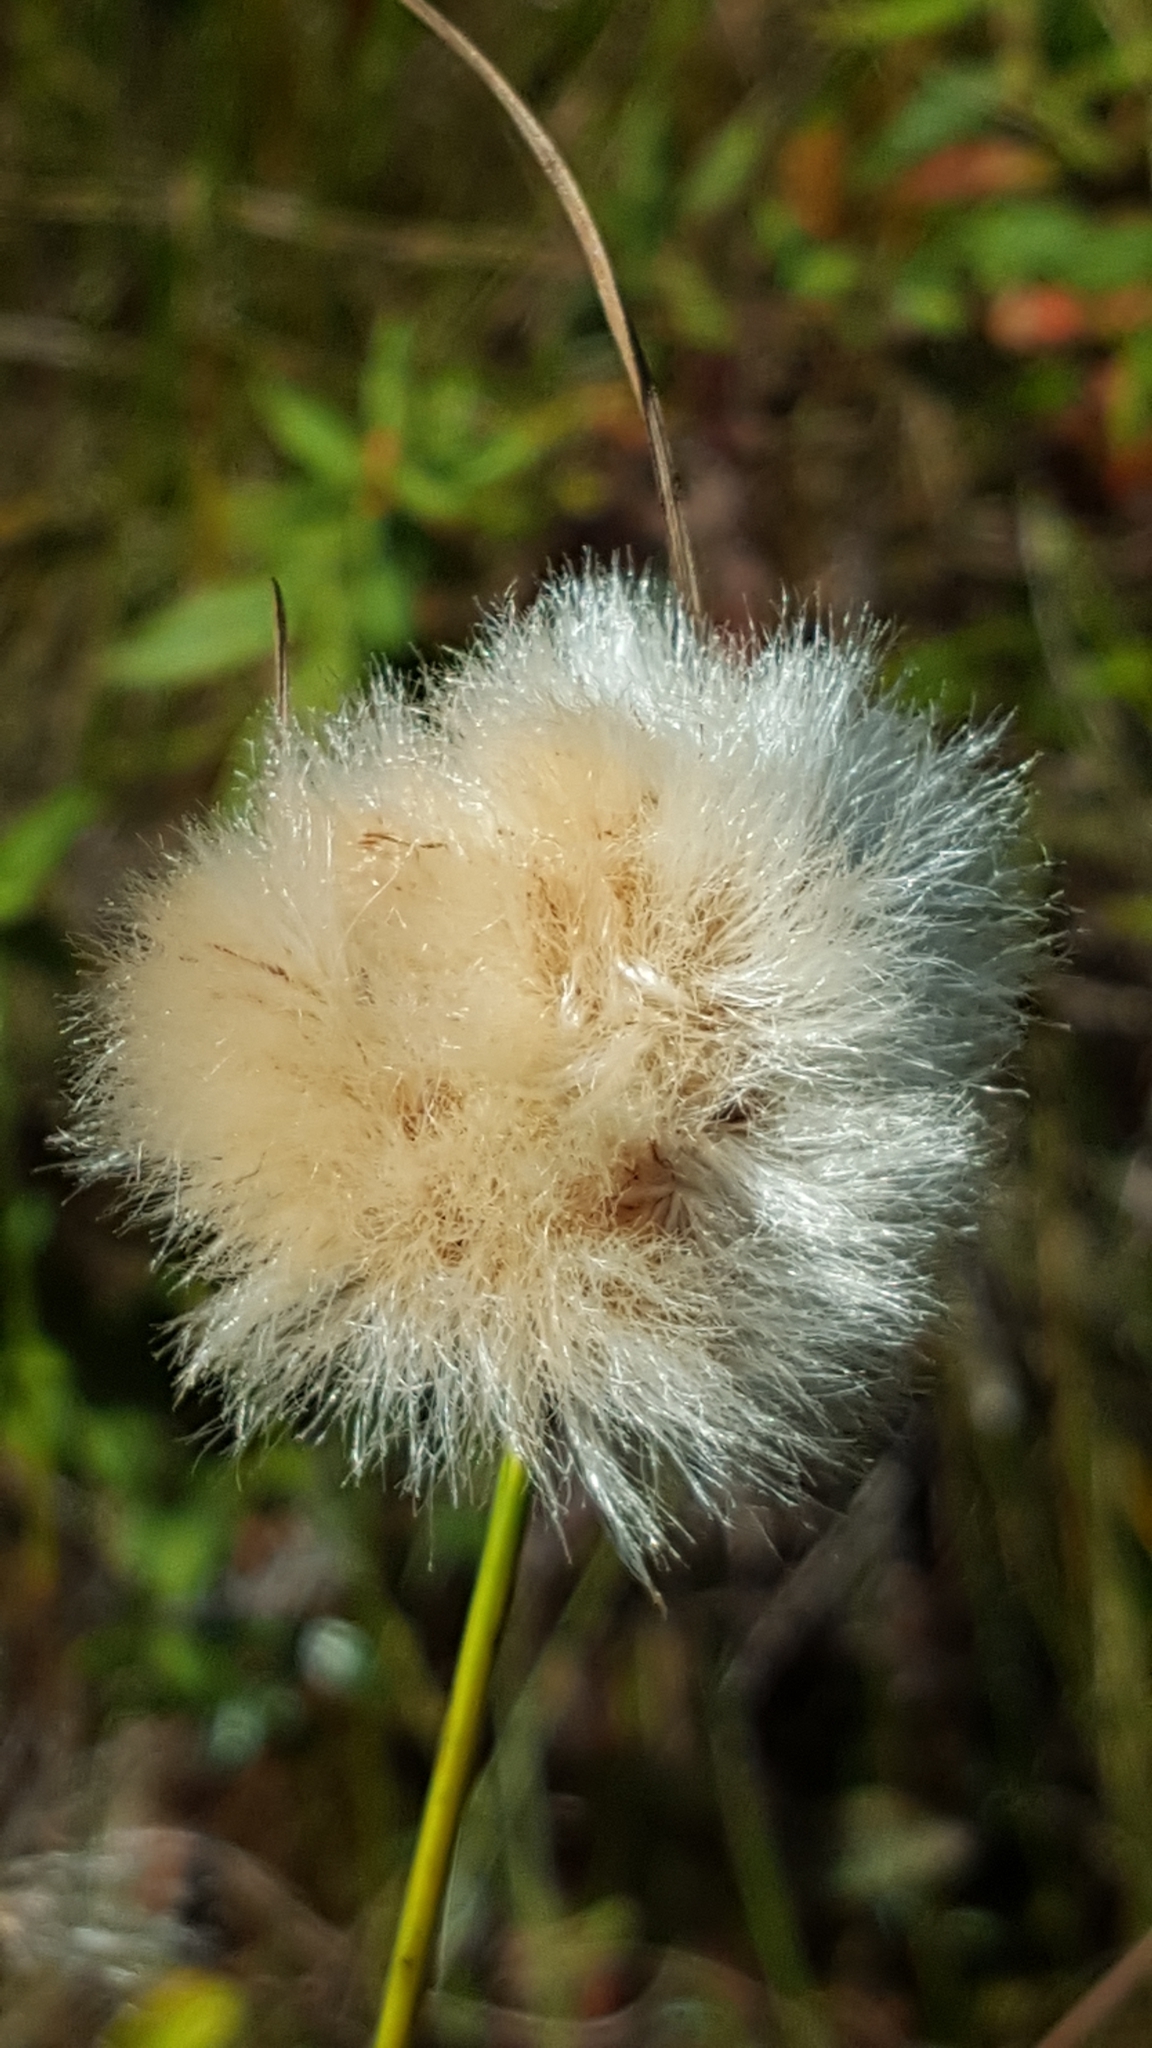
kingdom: Plantae
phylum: Tracheophyta
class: Liliopsida
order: Poales
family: Cyperaceae
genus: Eriophorum
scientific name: Eriophorum virginicum
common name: Tawny cottongrass
